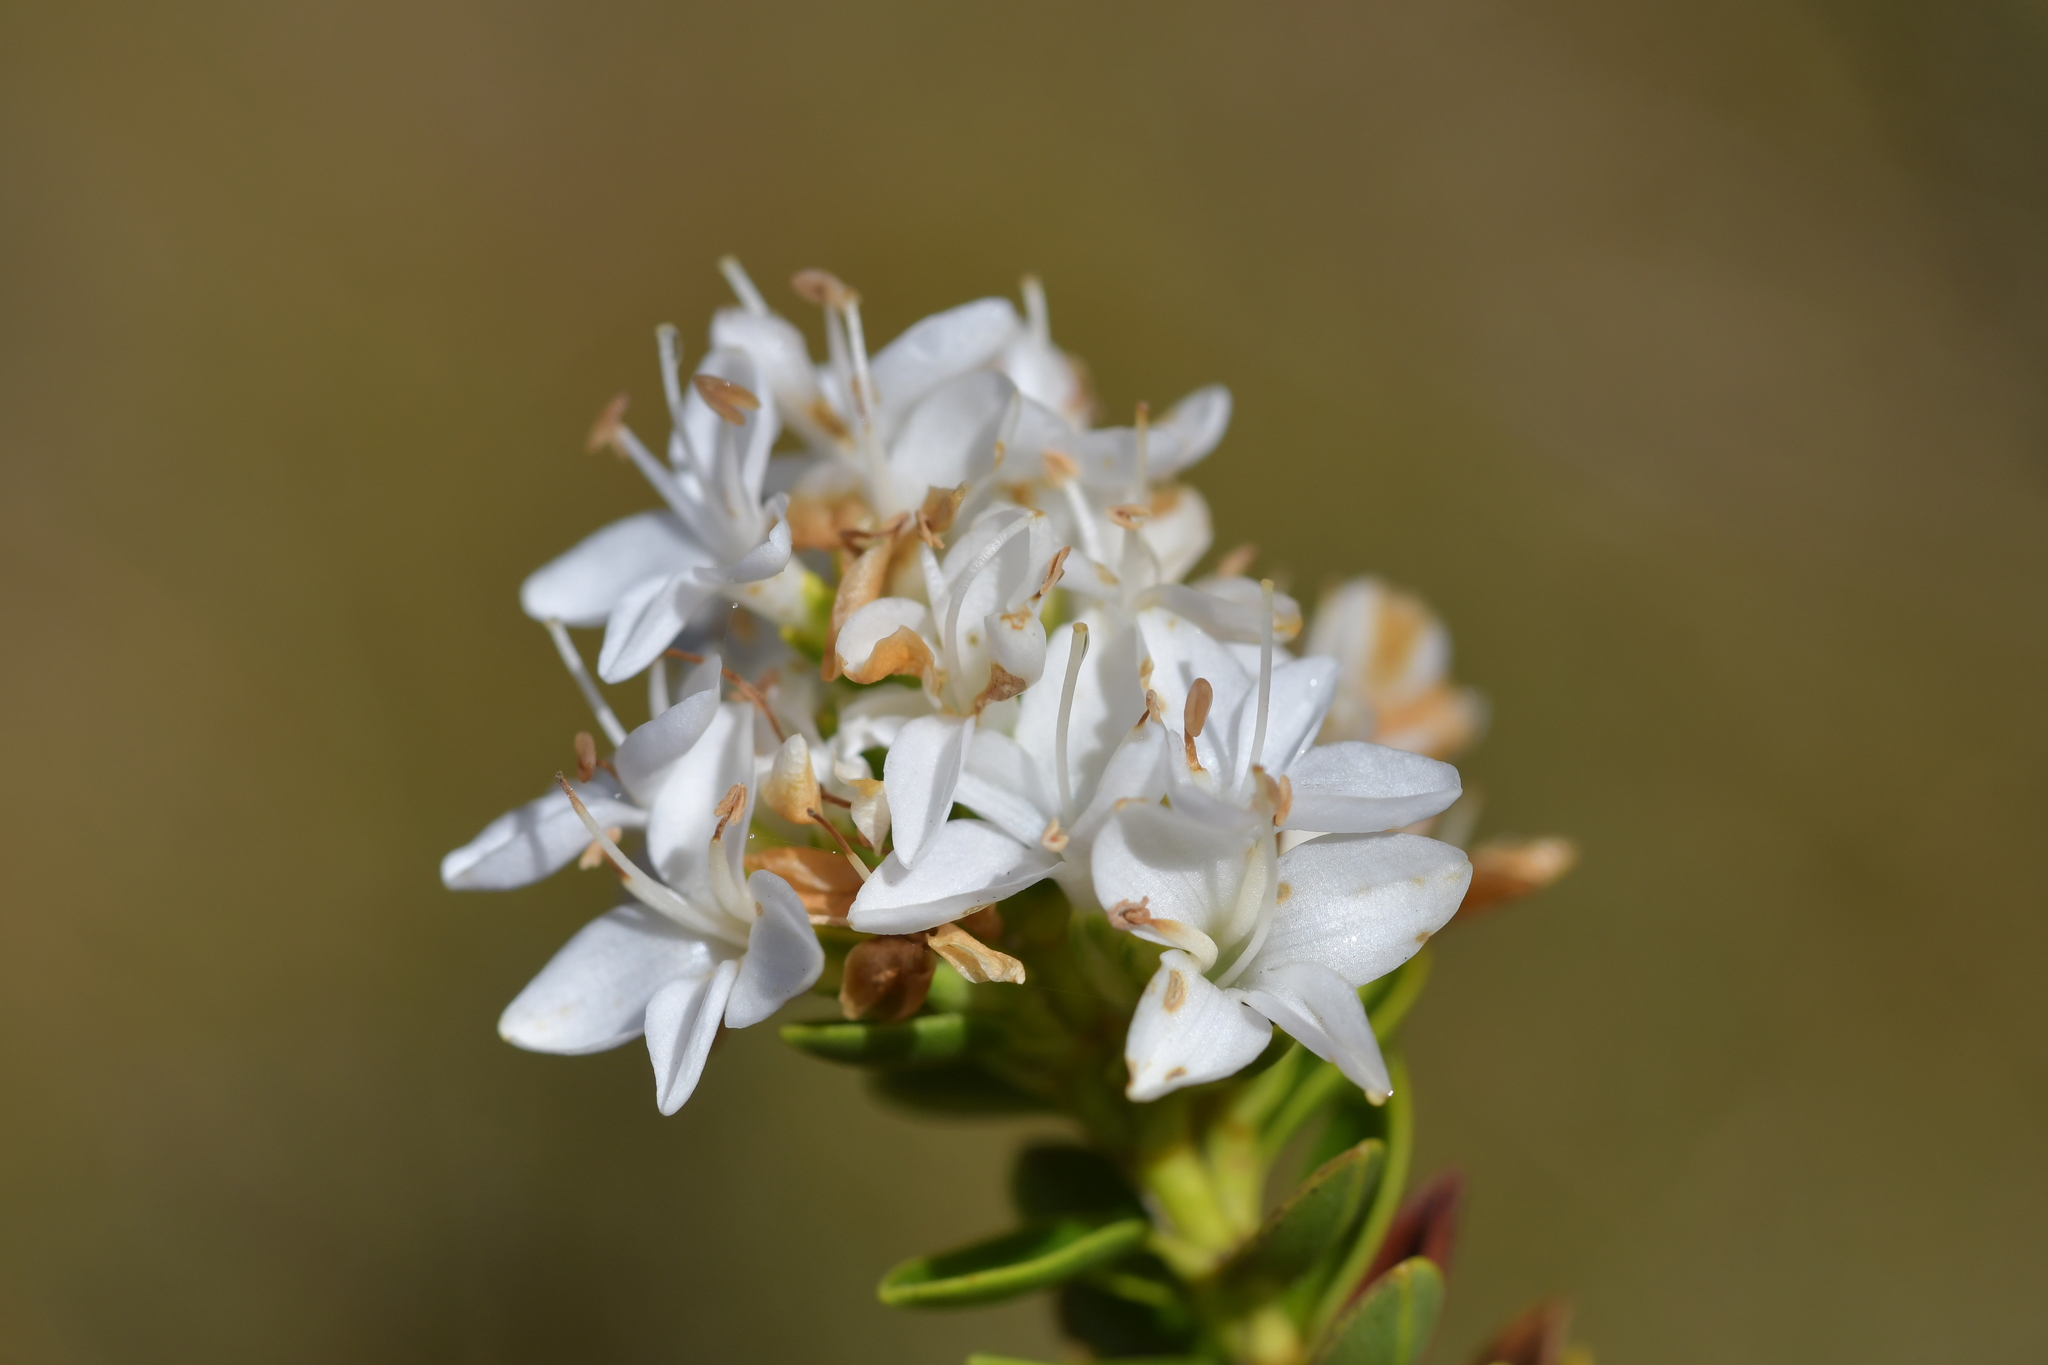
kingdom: Plantae
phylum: Tracheophyta
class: Magnoliopsida
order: Lamiales
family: Plantaginaceae
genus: Veronica
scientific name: Veronica odora
